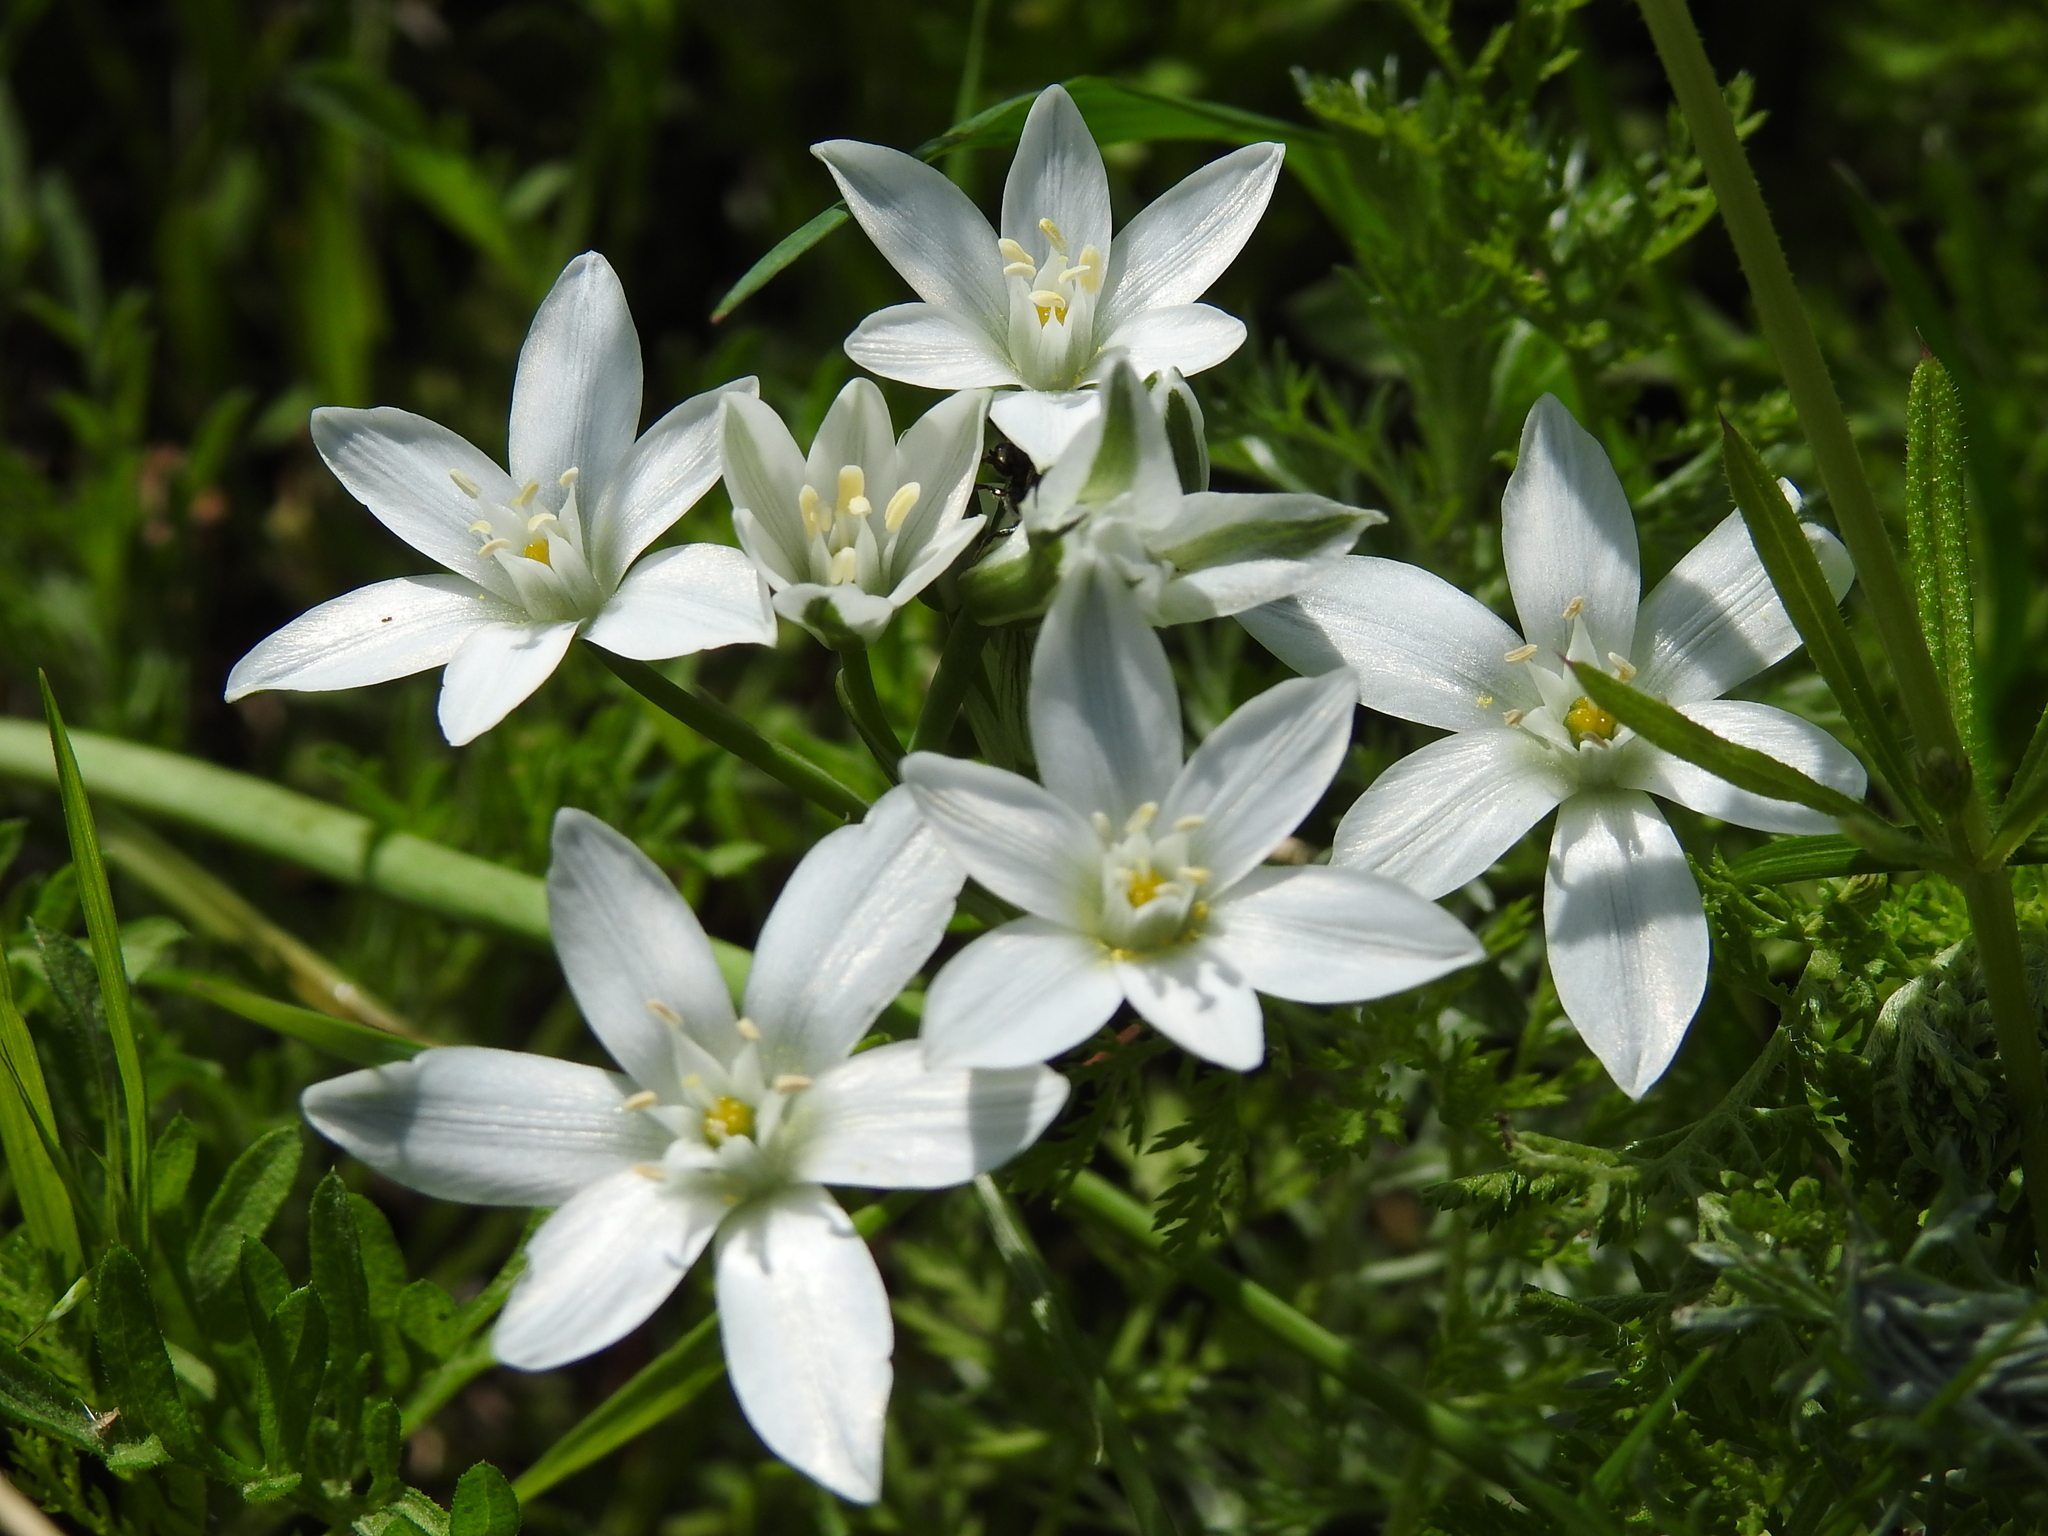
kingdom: Plantae
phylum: Tracheophyta
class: Liliopsida
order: Asparagales
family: Asparagaceae
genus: Ornithogalum
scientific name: Ornithogalum orthophyllum
